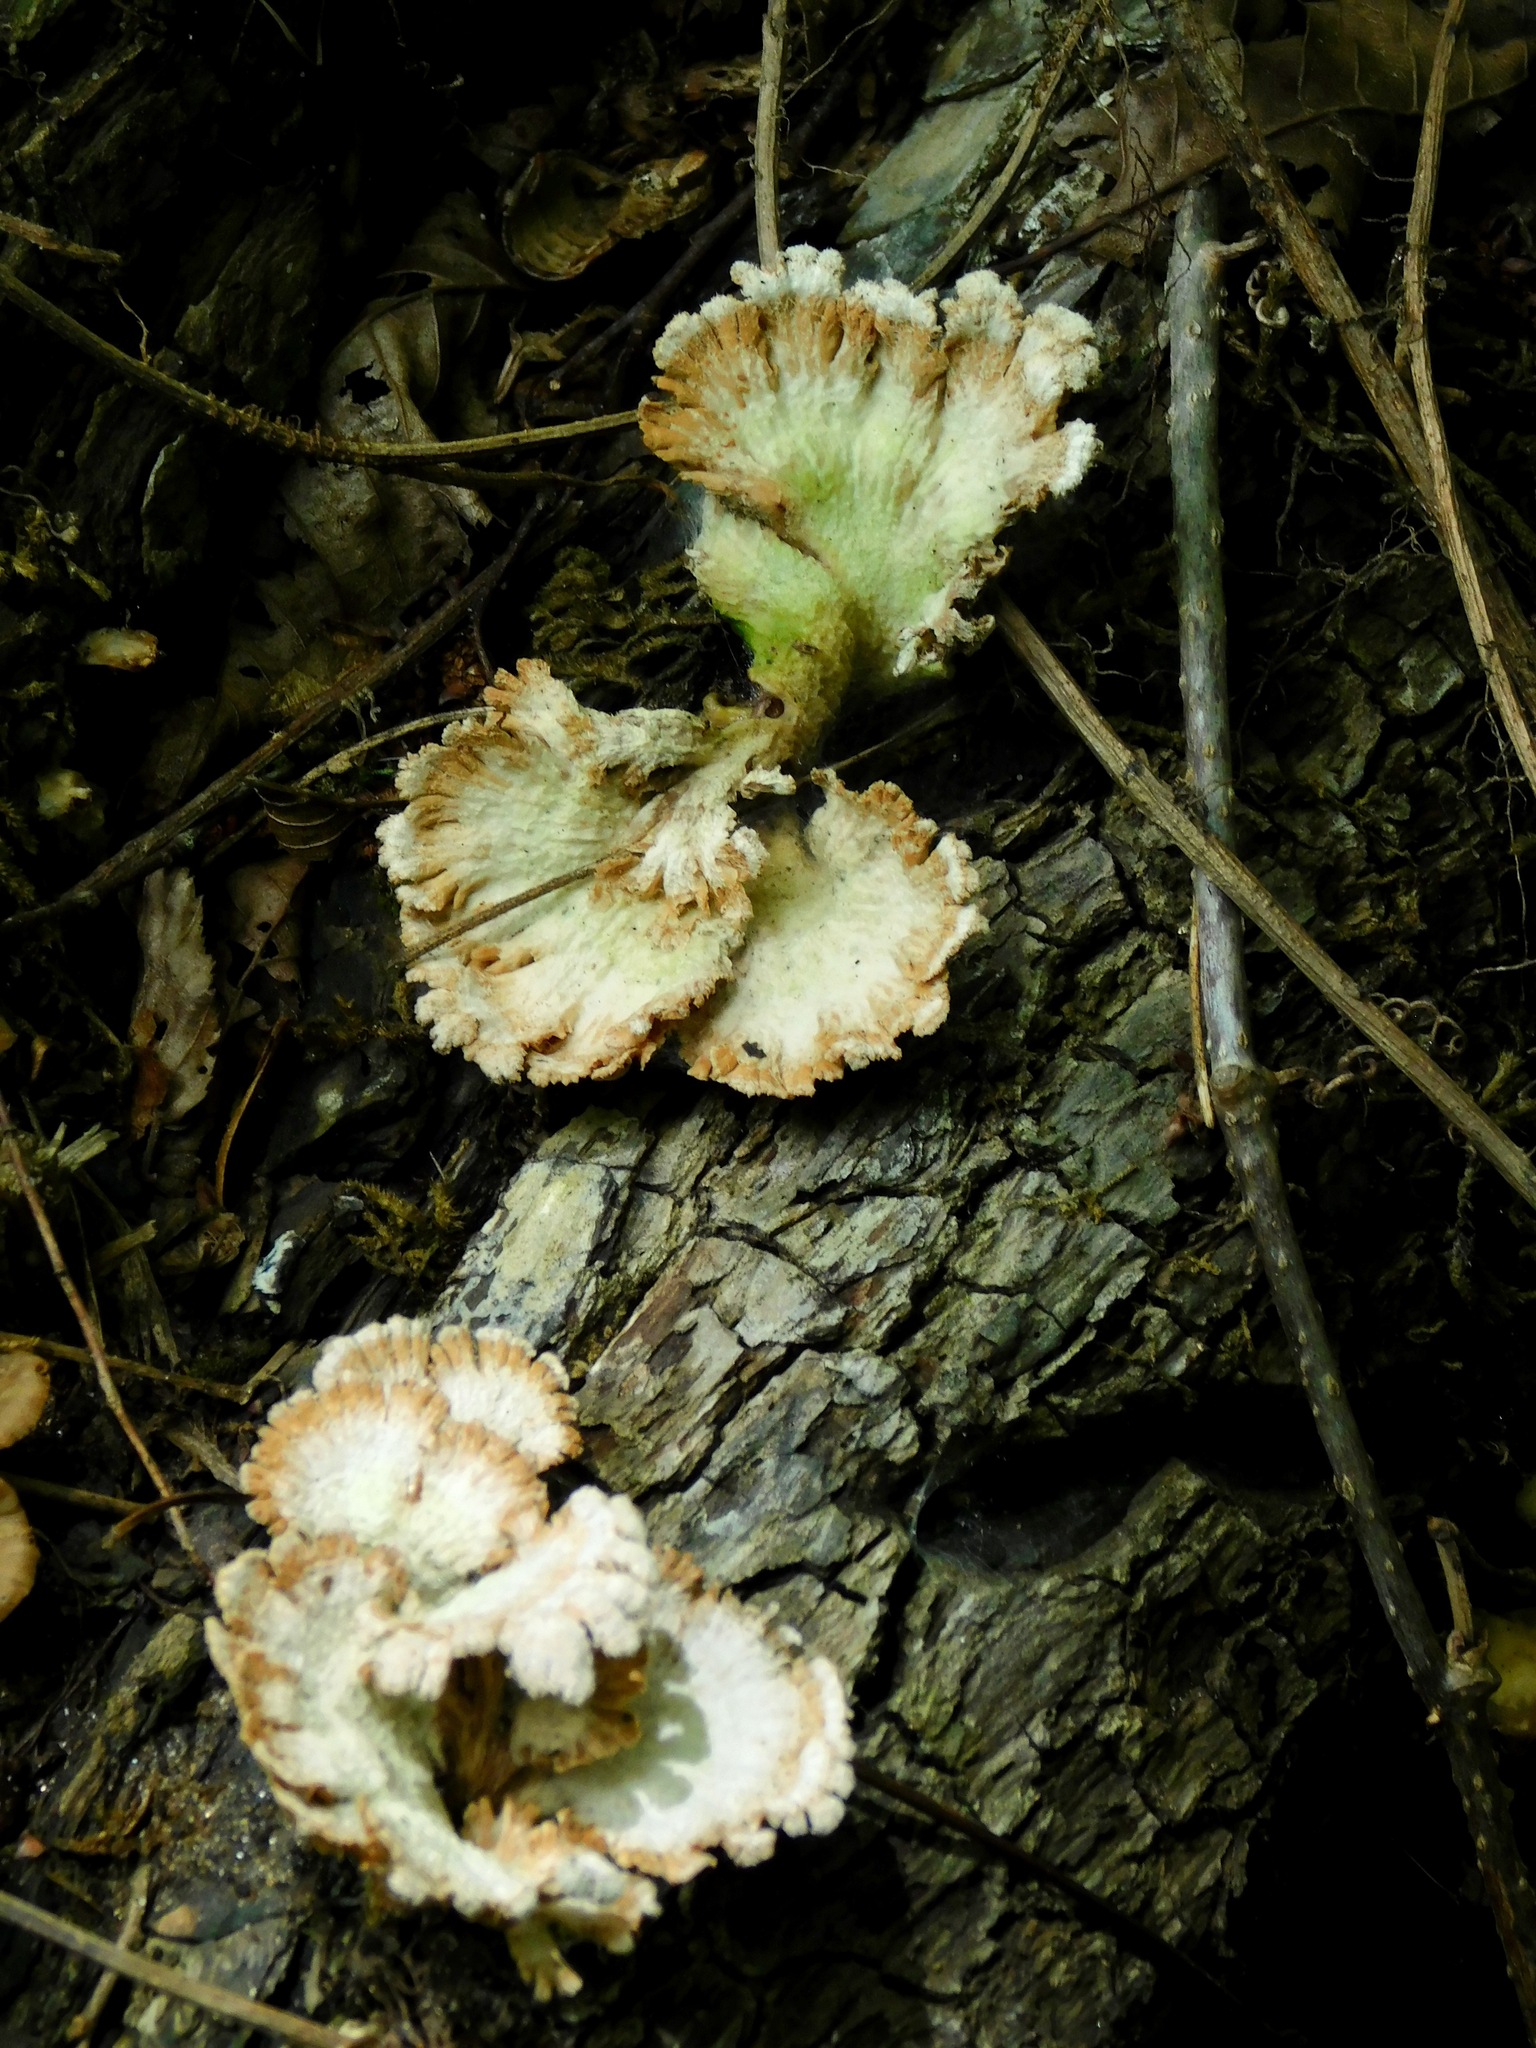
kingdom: Fungi
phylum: Basidiomycota
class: Agaricomycetes
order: Agaricales
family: Schizophyllaceae
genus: Schizophyllum
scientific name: Schizophyllum commune
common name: Common porecrust
